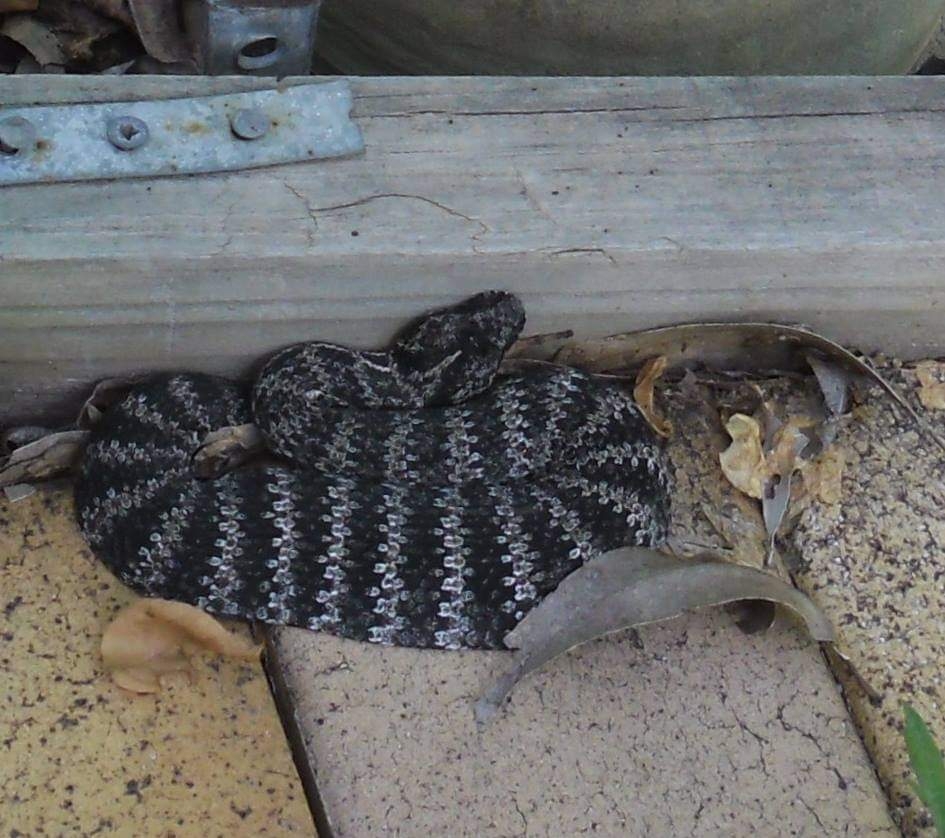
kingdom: Animalia
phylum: Chordata
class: Squamata
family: Elapidae
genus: Acanthophis
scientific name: Acanthophis antarcticus
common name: Common death adder
